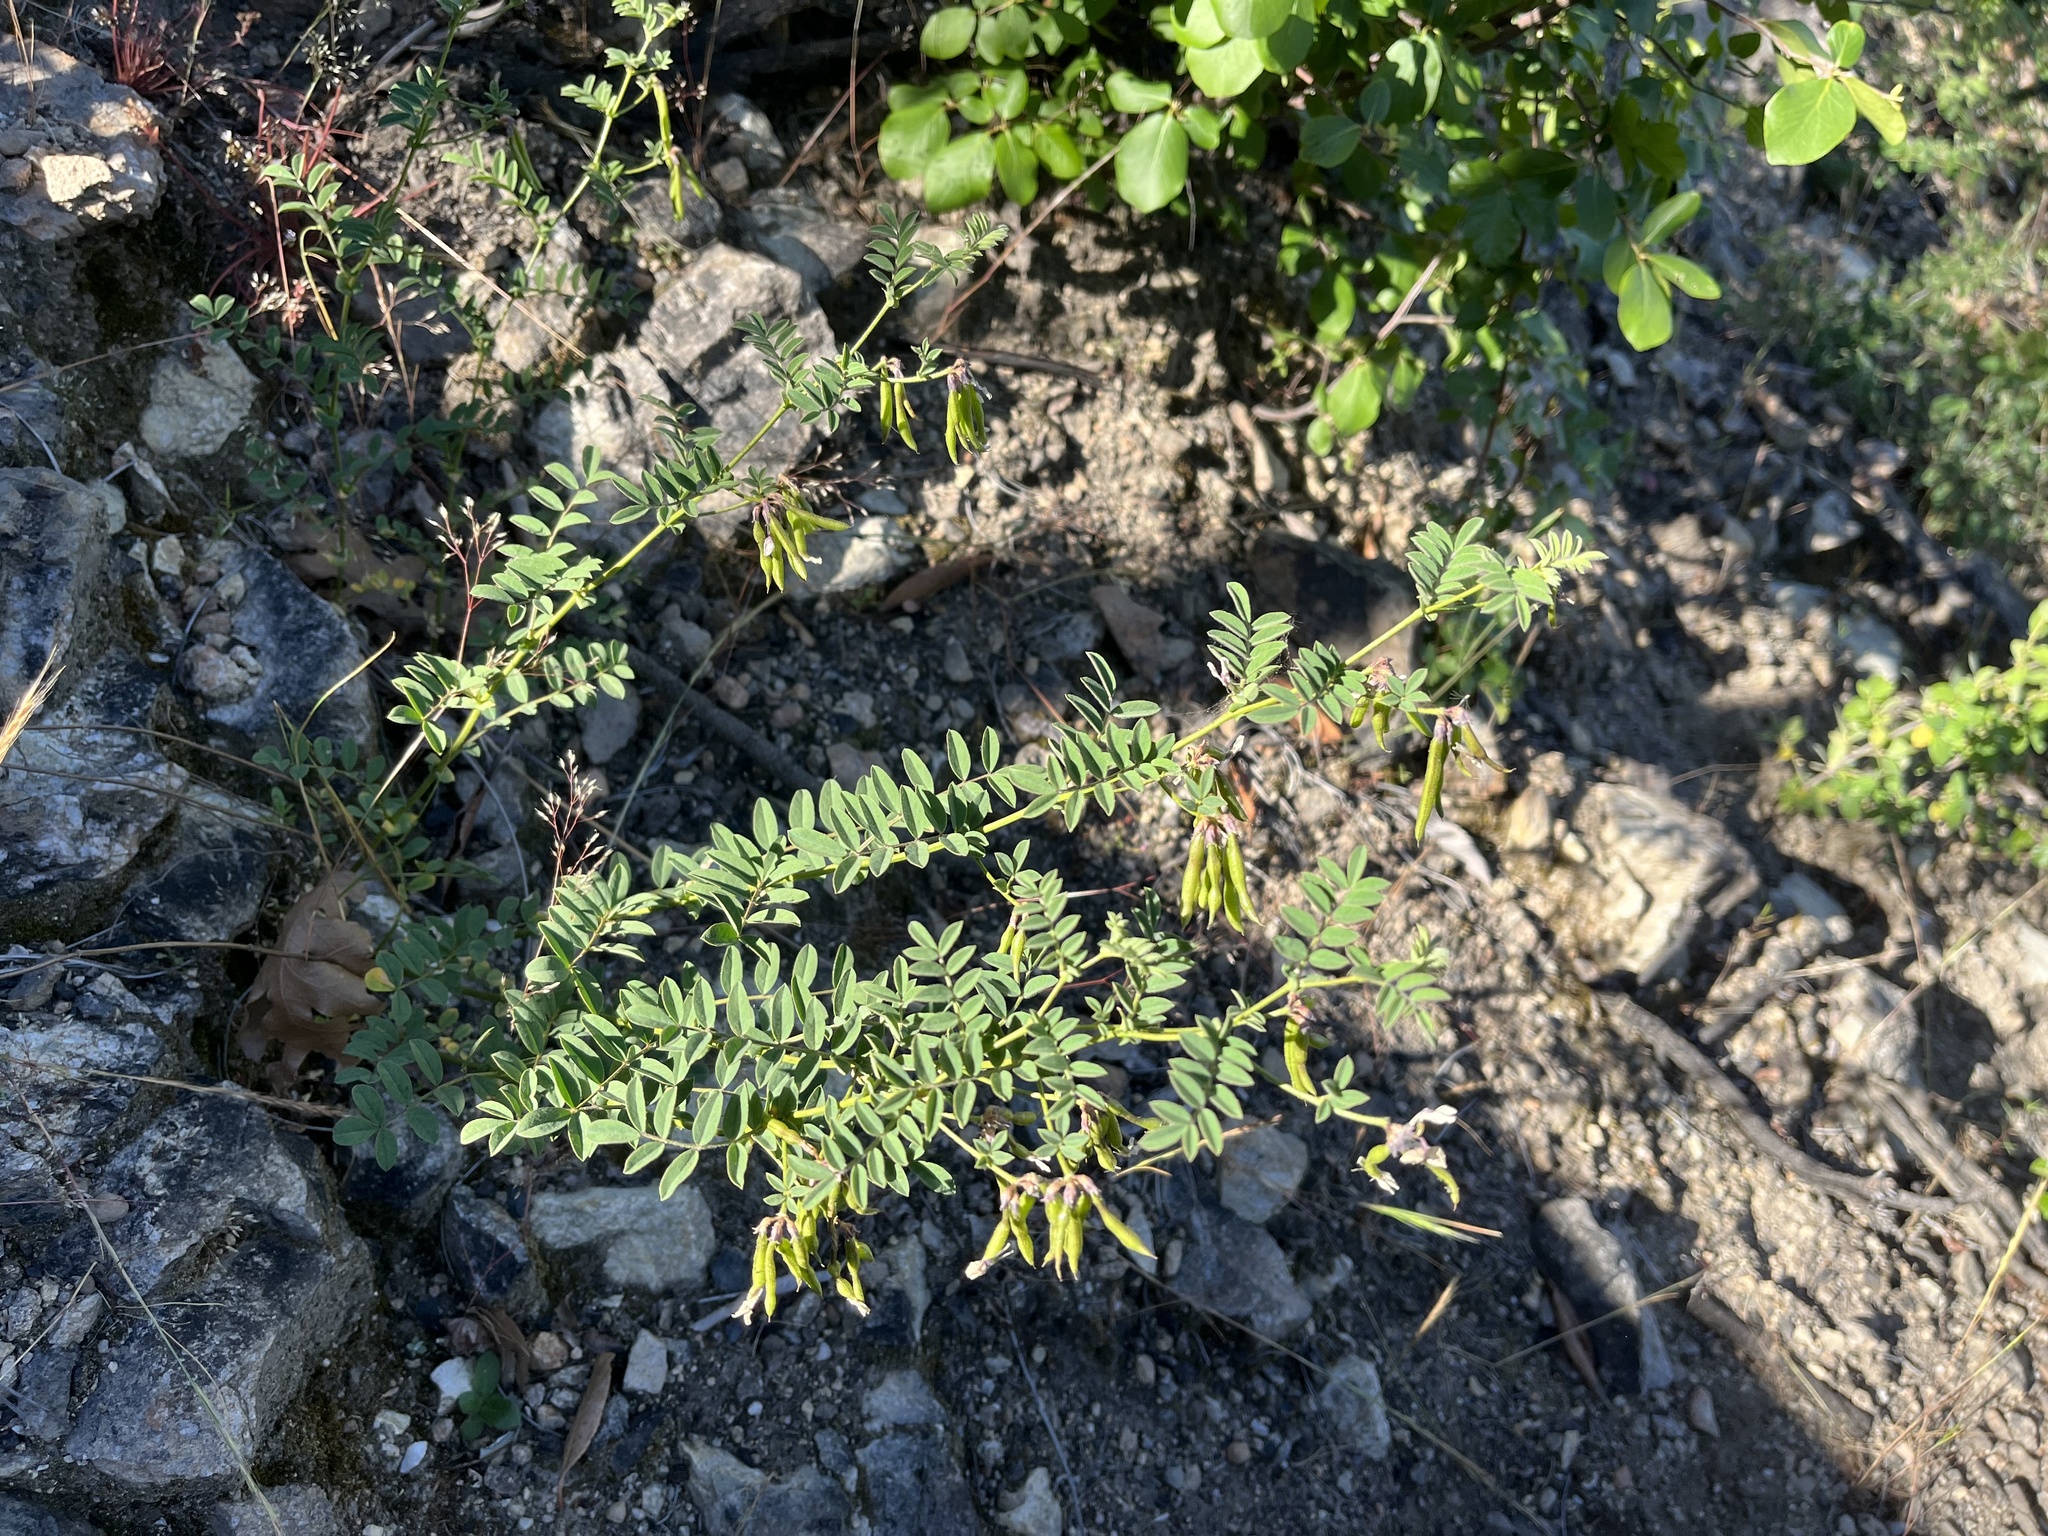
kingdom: Plantae
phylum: Tracheophyta
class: Magnoliopsida
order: Fabales
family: Fabaceae
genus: Hosackia
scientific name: Hosackia stipularis
